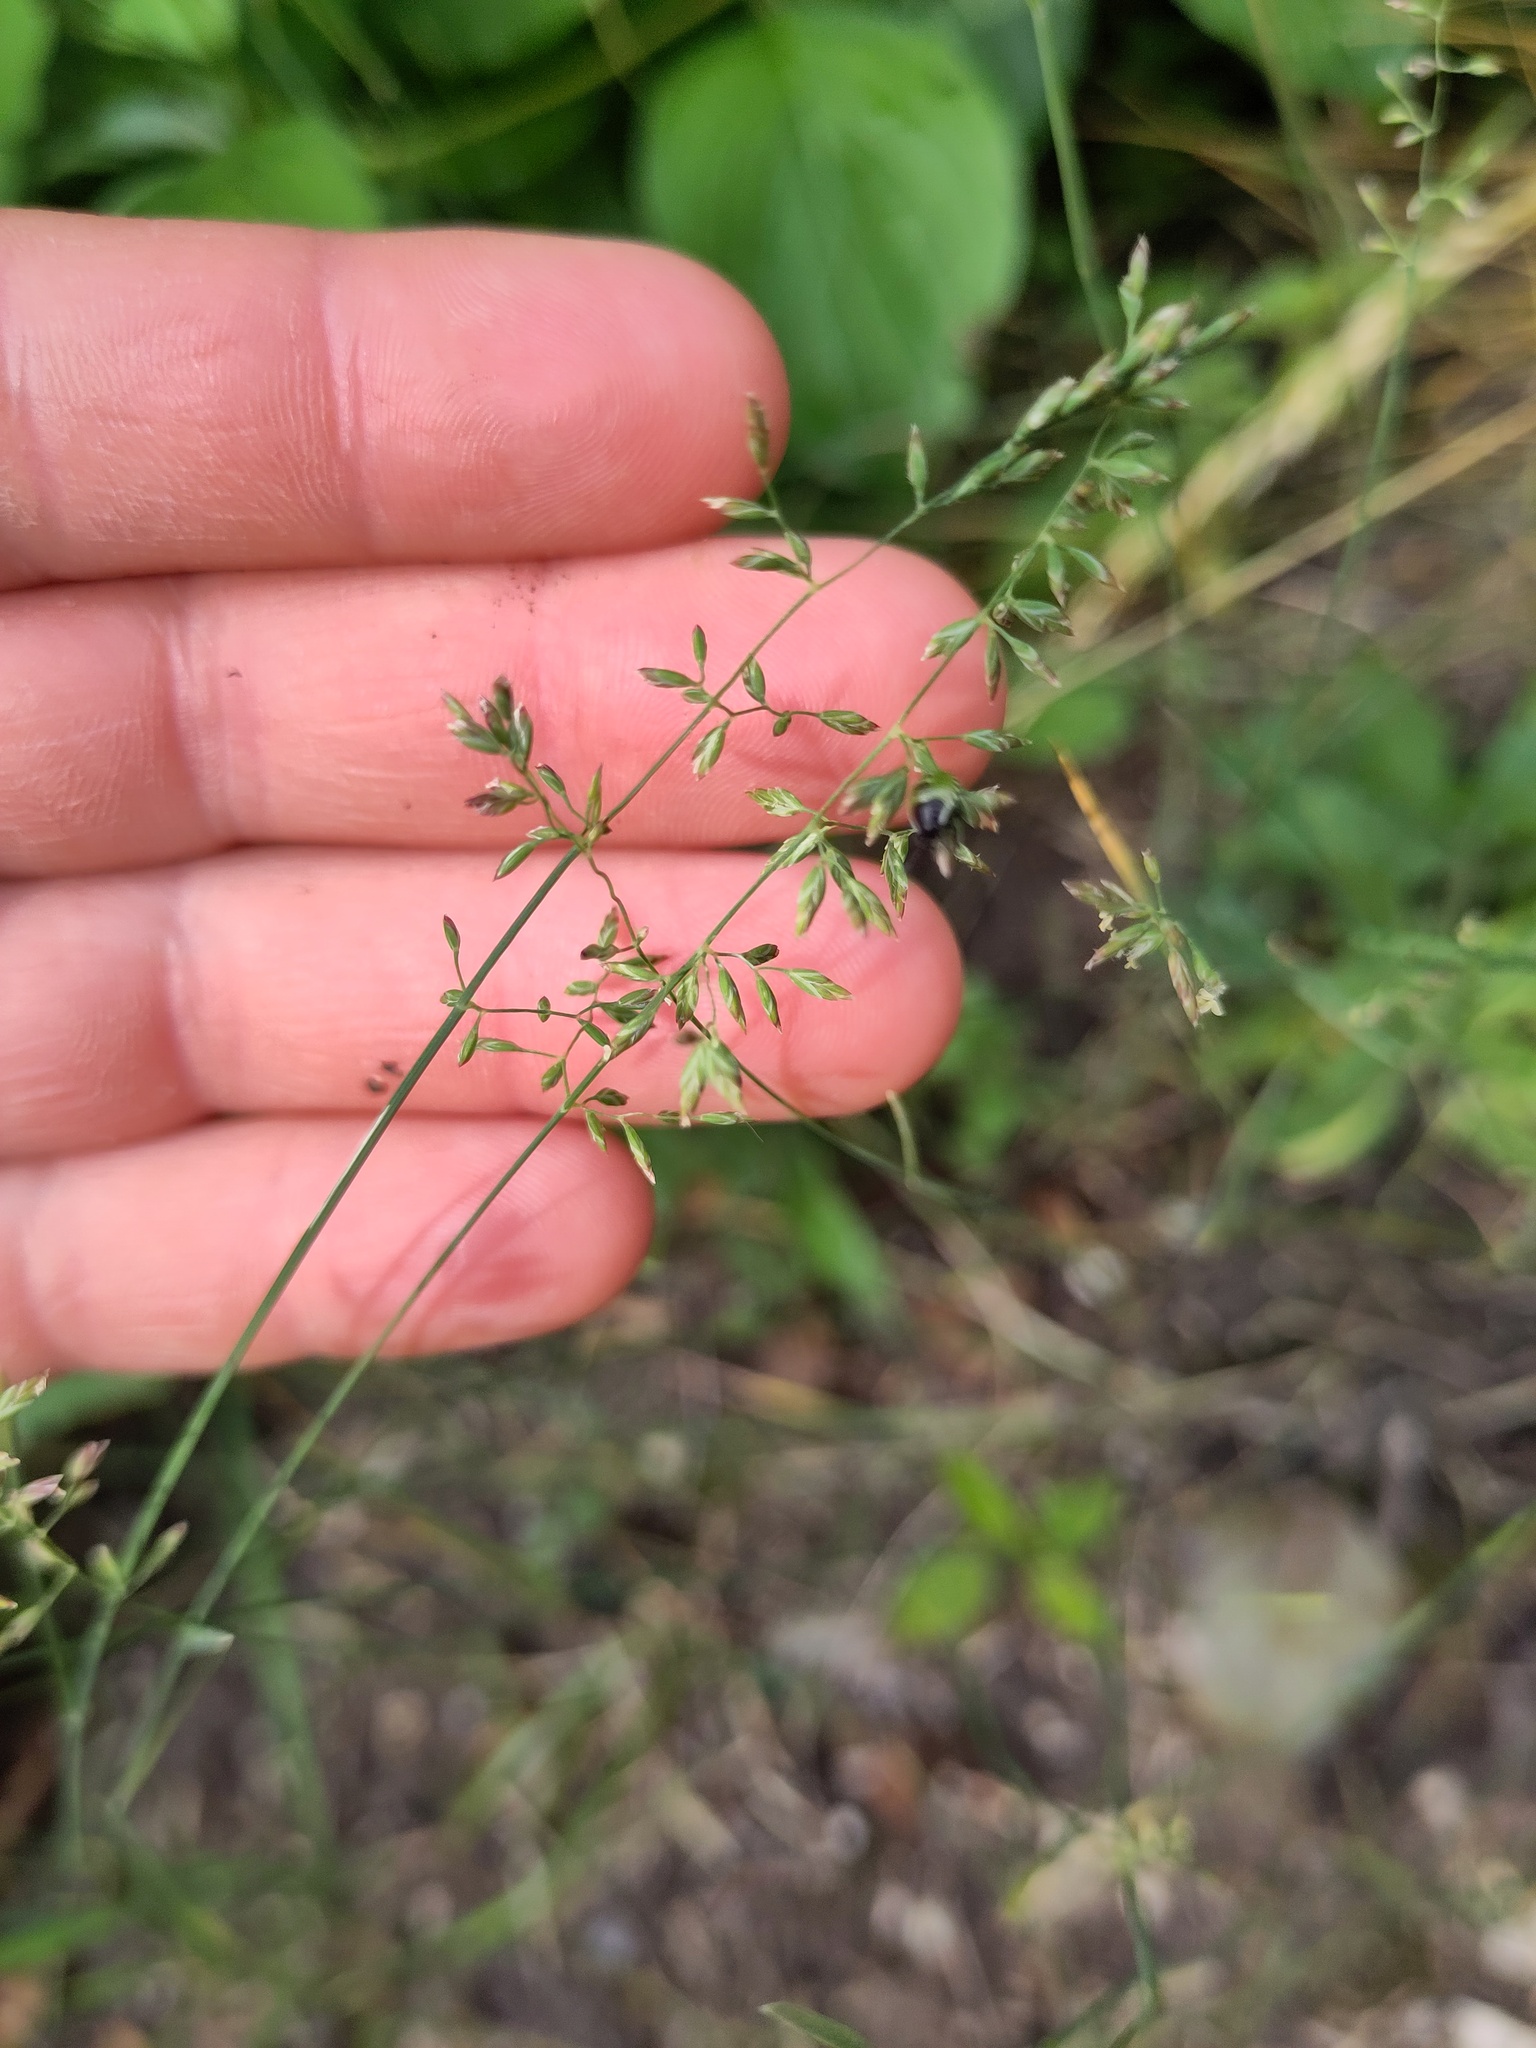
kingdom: Plantae
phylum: Tracheophyta
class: Liliopsida
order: Poales
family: Poaceae
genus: Poa
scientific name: Poa compressa
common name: Canada bluegrass
